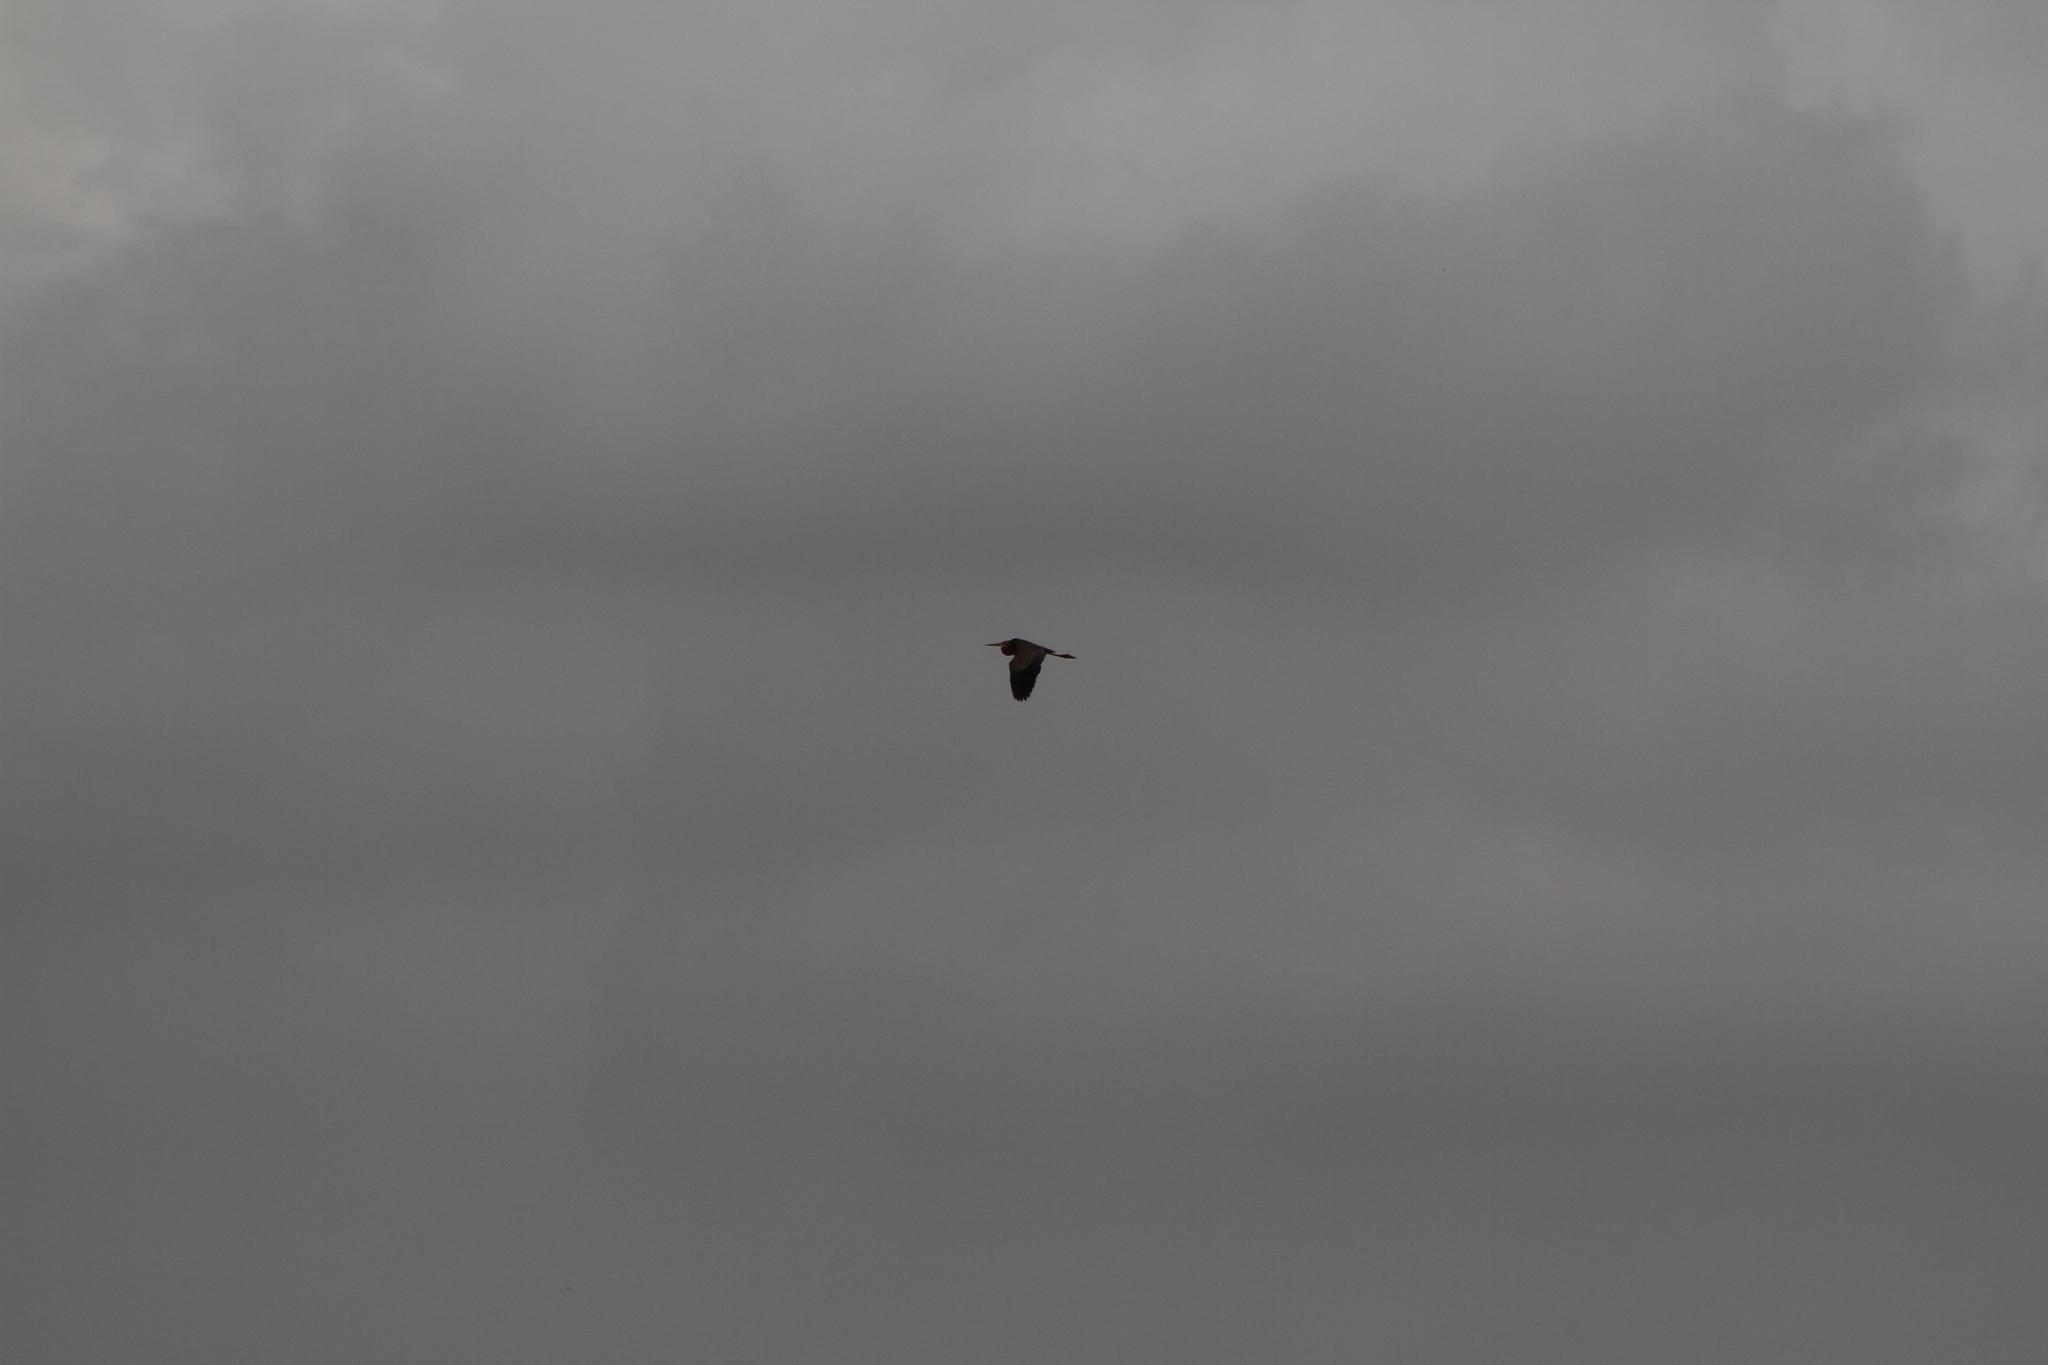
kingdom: Animalia
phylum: Chordata
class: Aves
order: Pelecaniformes
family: Ardeidae
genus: Ardea
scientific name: Ardea purpurea
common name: Purple heron
